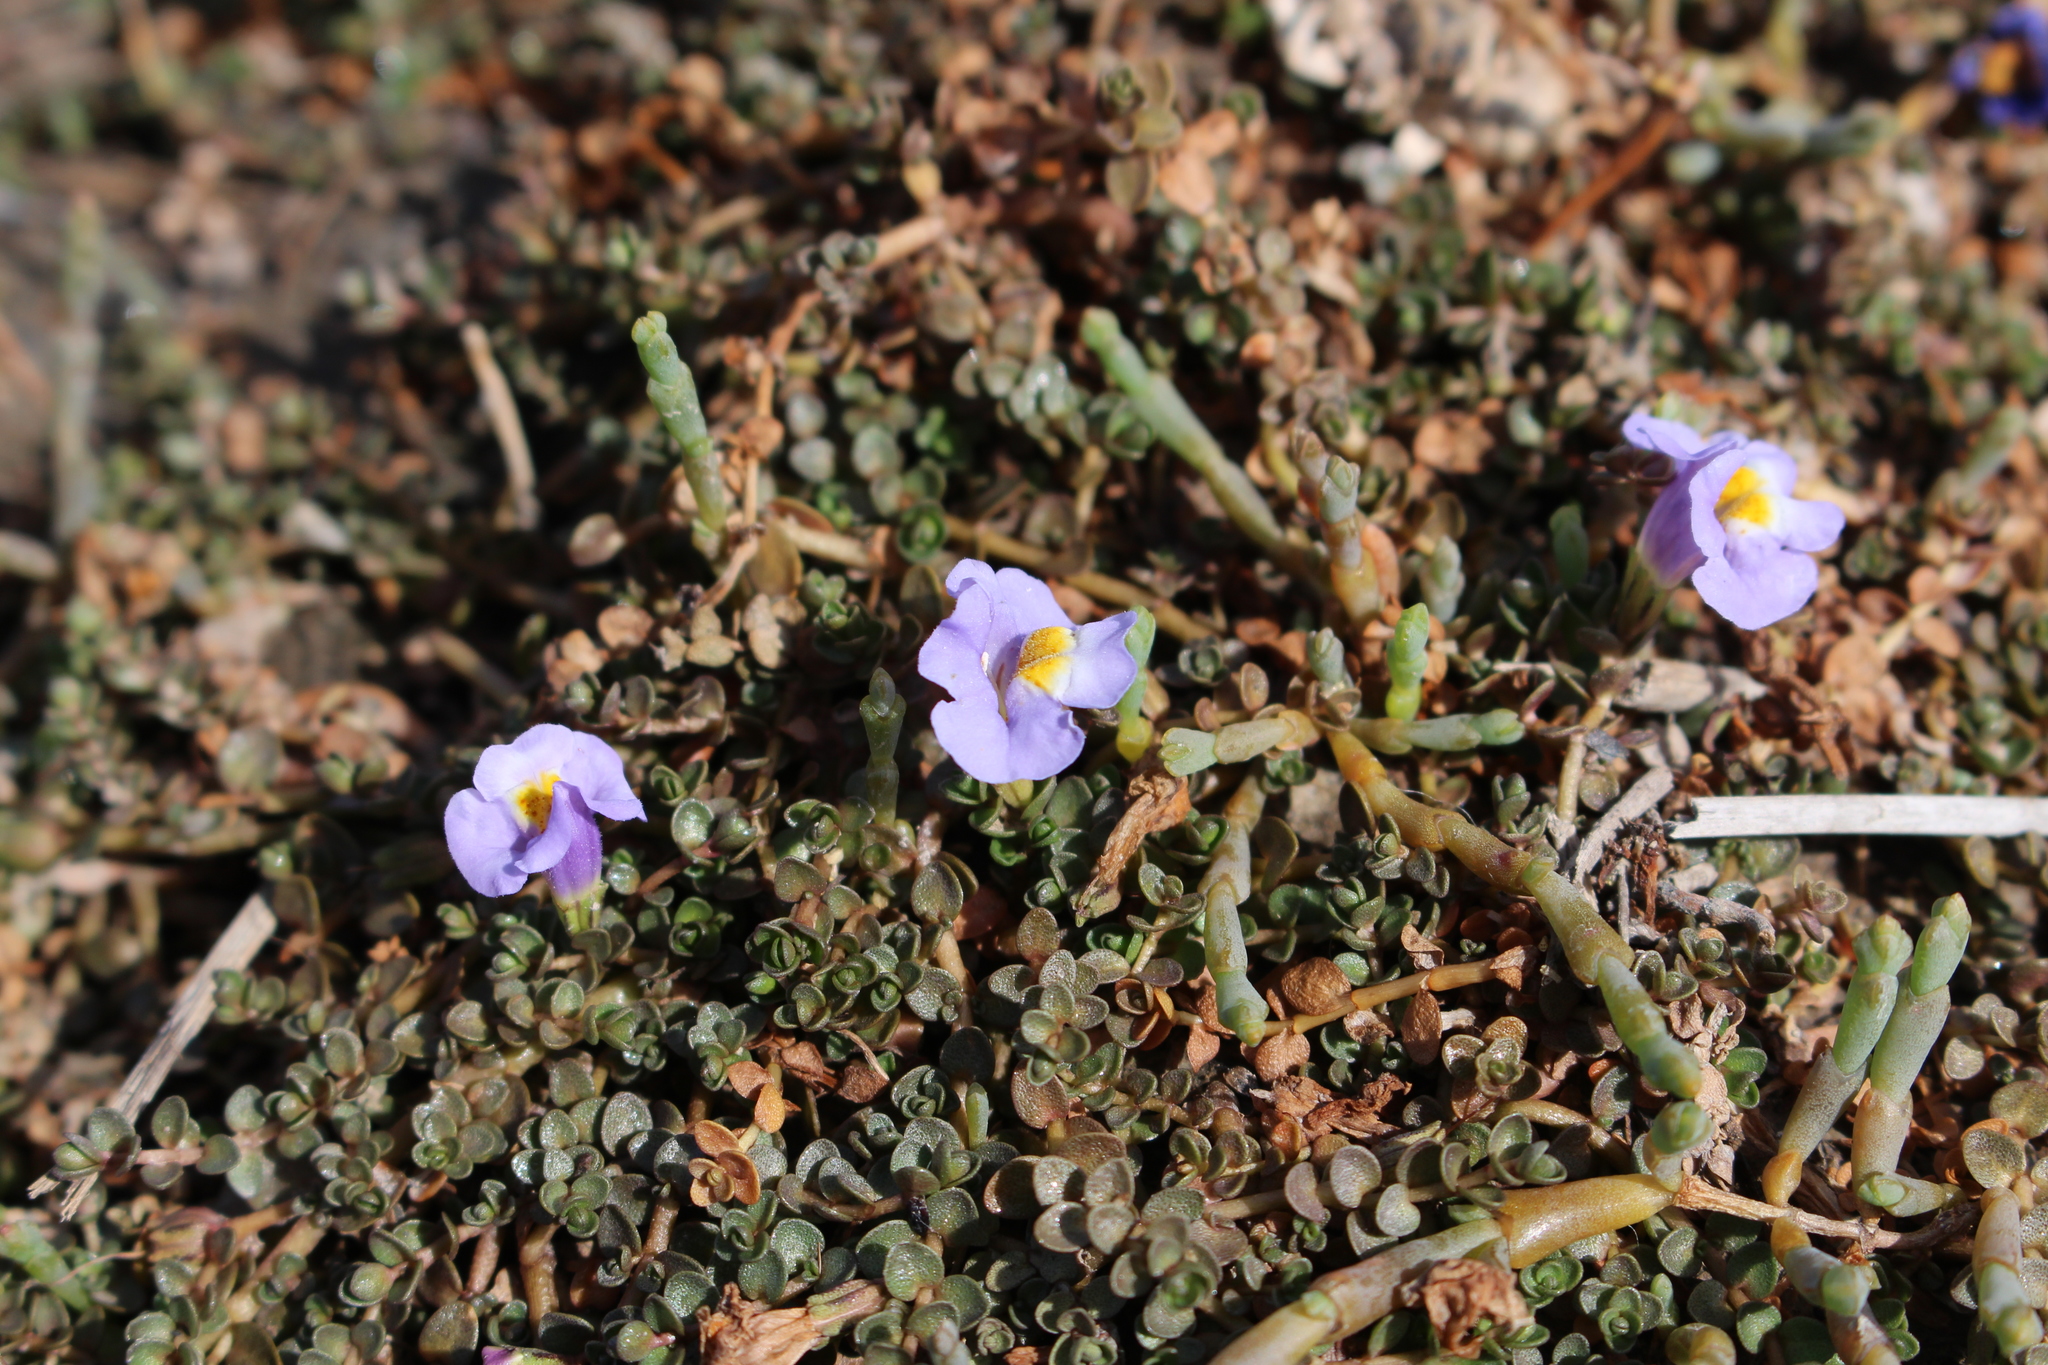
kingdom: Plantae
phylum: Tracheophyta
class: Magnoliopsida
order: Lamiales
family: Phrymaceae
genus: Thyridia
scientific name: Thyridia repens
